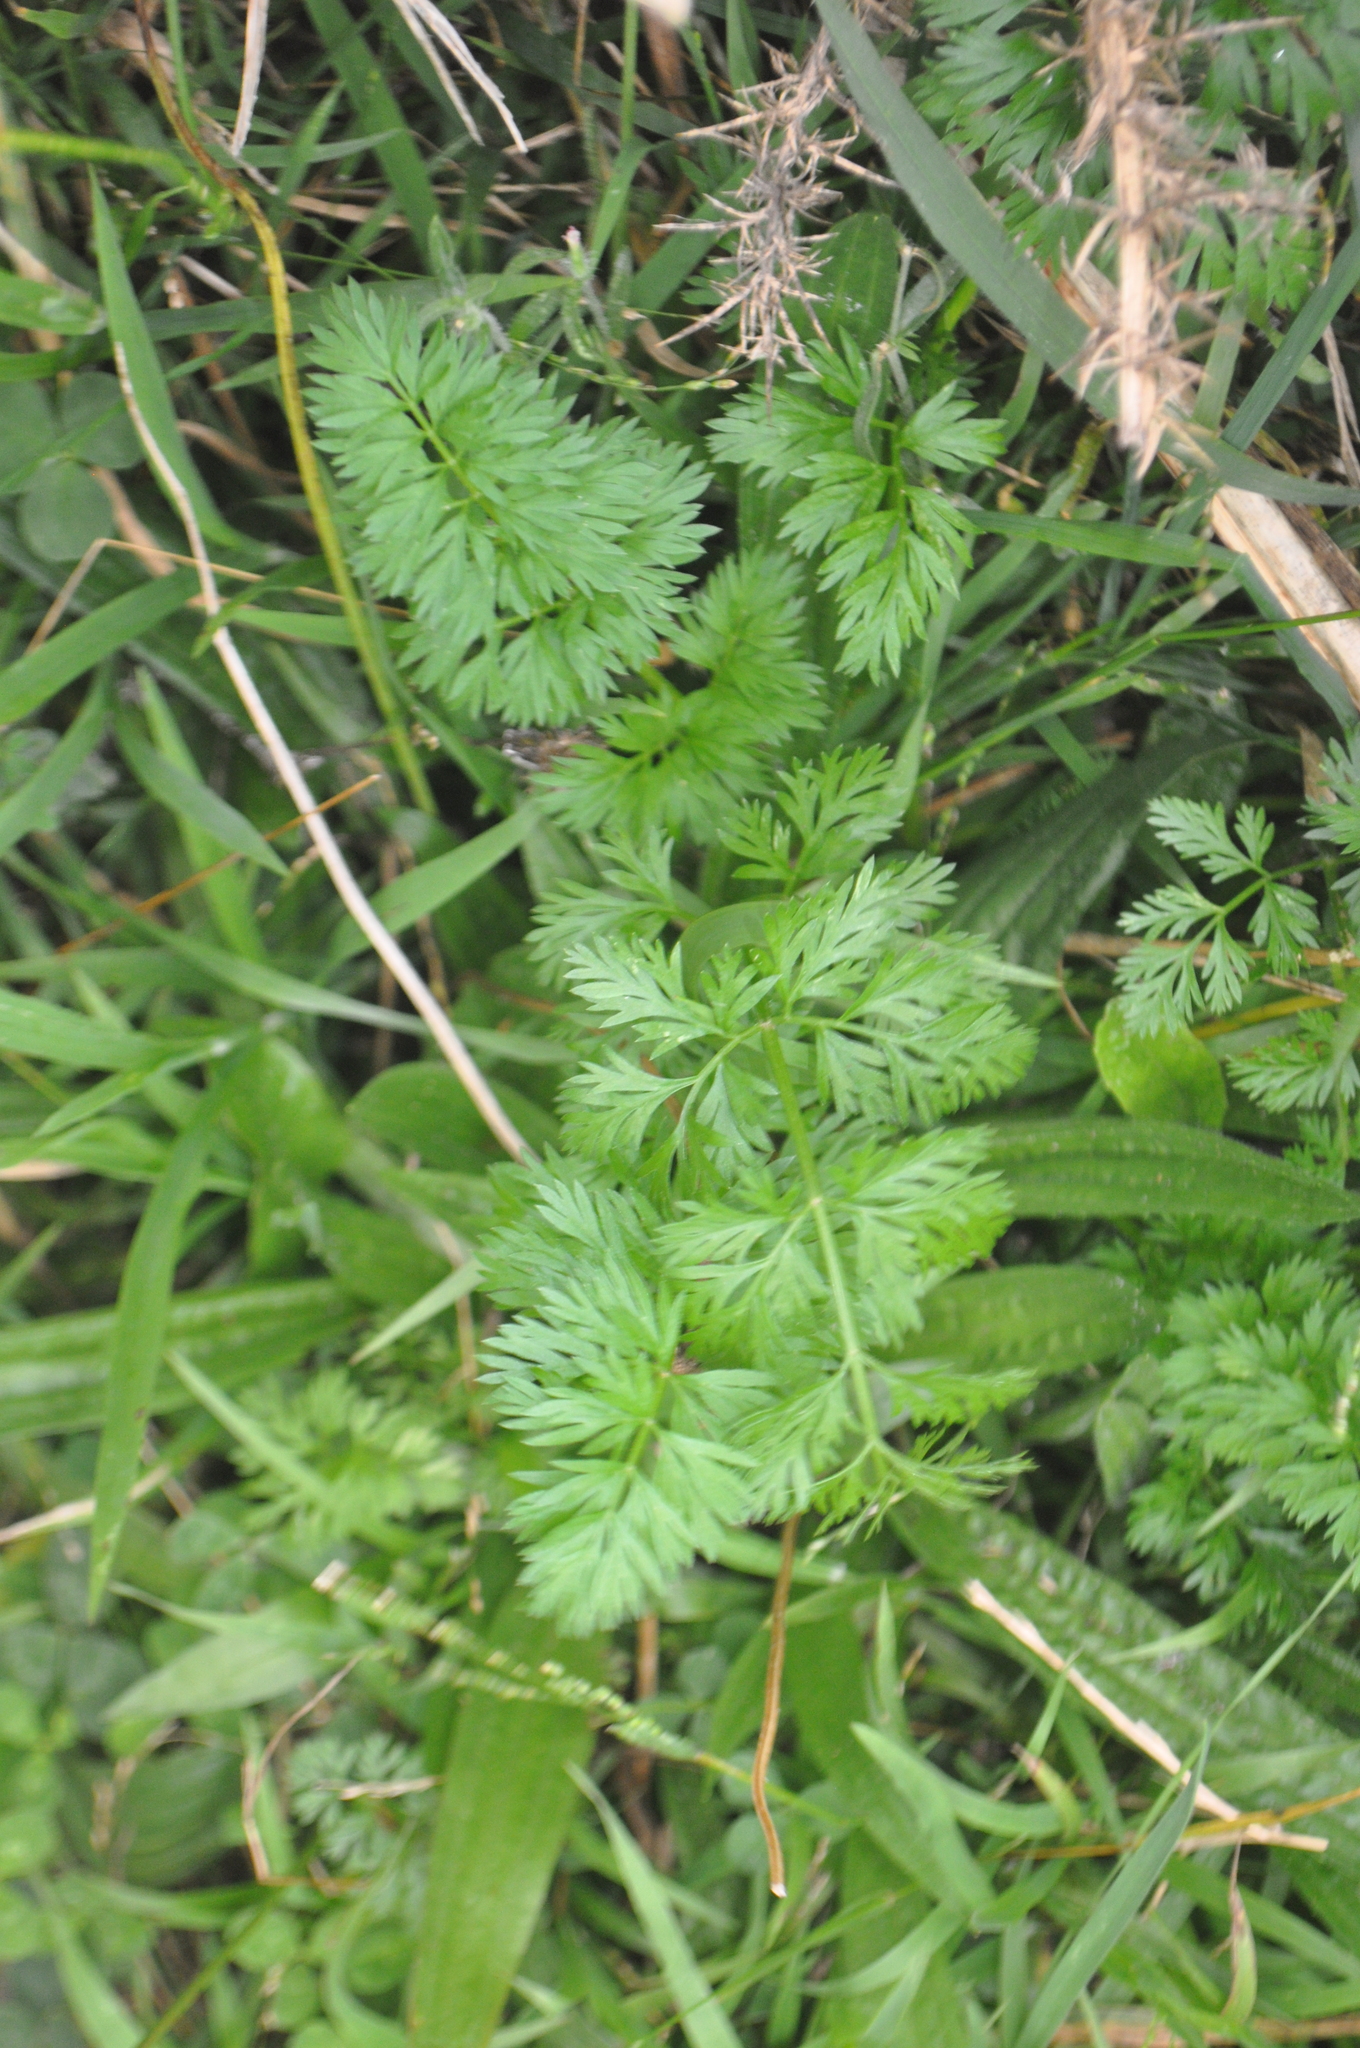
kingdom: Plantae
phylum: Tracheophyta
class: Magnoliopsida
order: Apiales
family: Apiaceae
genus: Daucus
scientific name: Daucus carota
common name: Wild carrot
